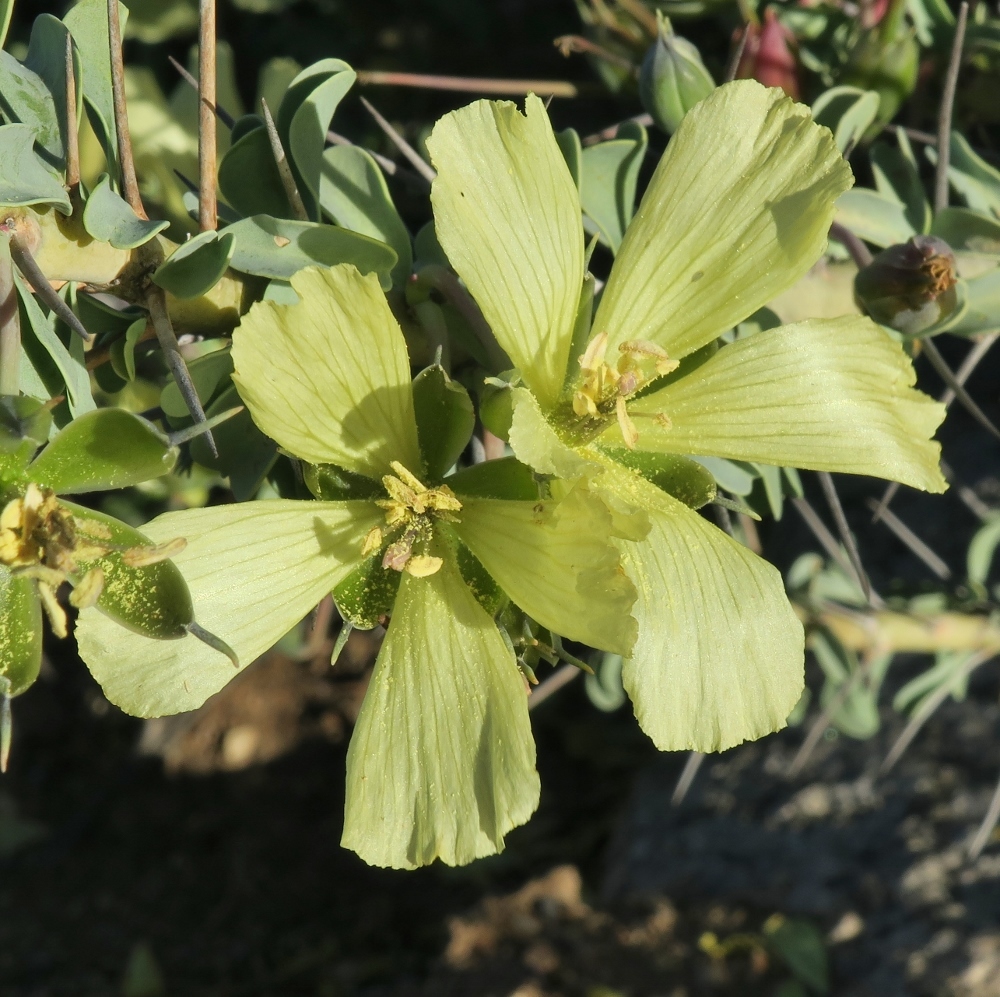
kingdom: Plantae
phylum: Tracheophyta
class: Magnoliopsida
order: Geraniales
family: Geraniaceae
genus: Monsonia
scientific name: Monsonia spinosa
